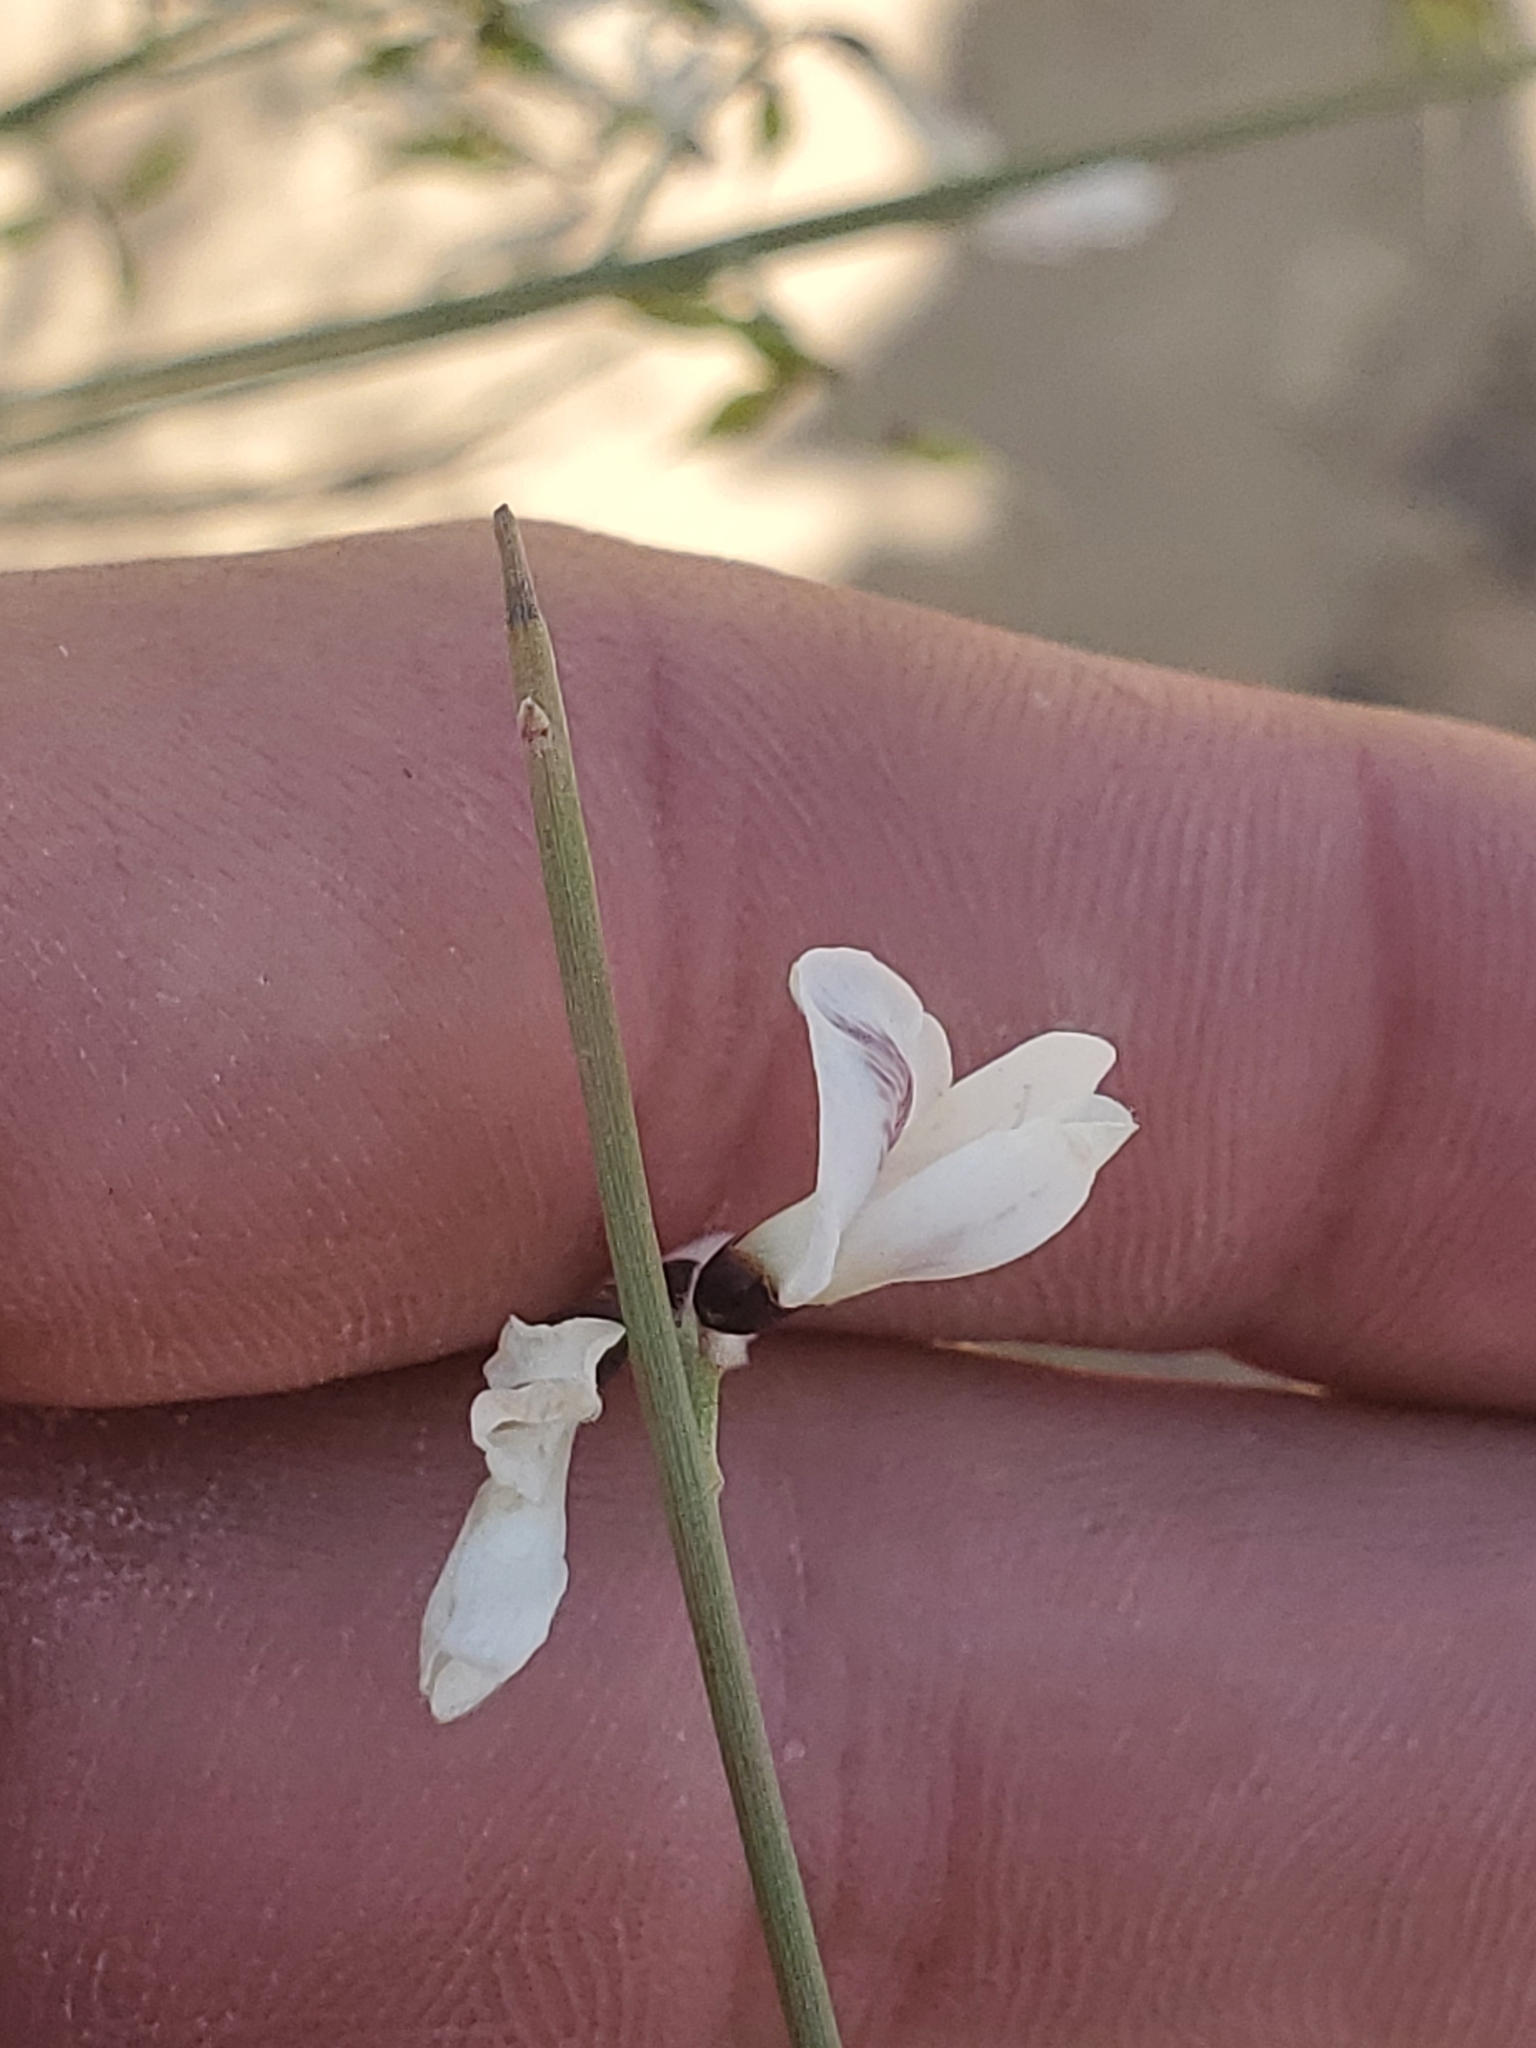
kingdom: Plantae
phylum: Tracheophyta
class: Magnoliopsida
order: Fabales
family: Fabaceae
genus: Retama
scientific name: Retama raetam
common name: Retem
